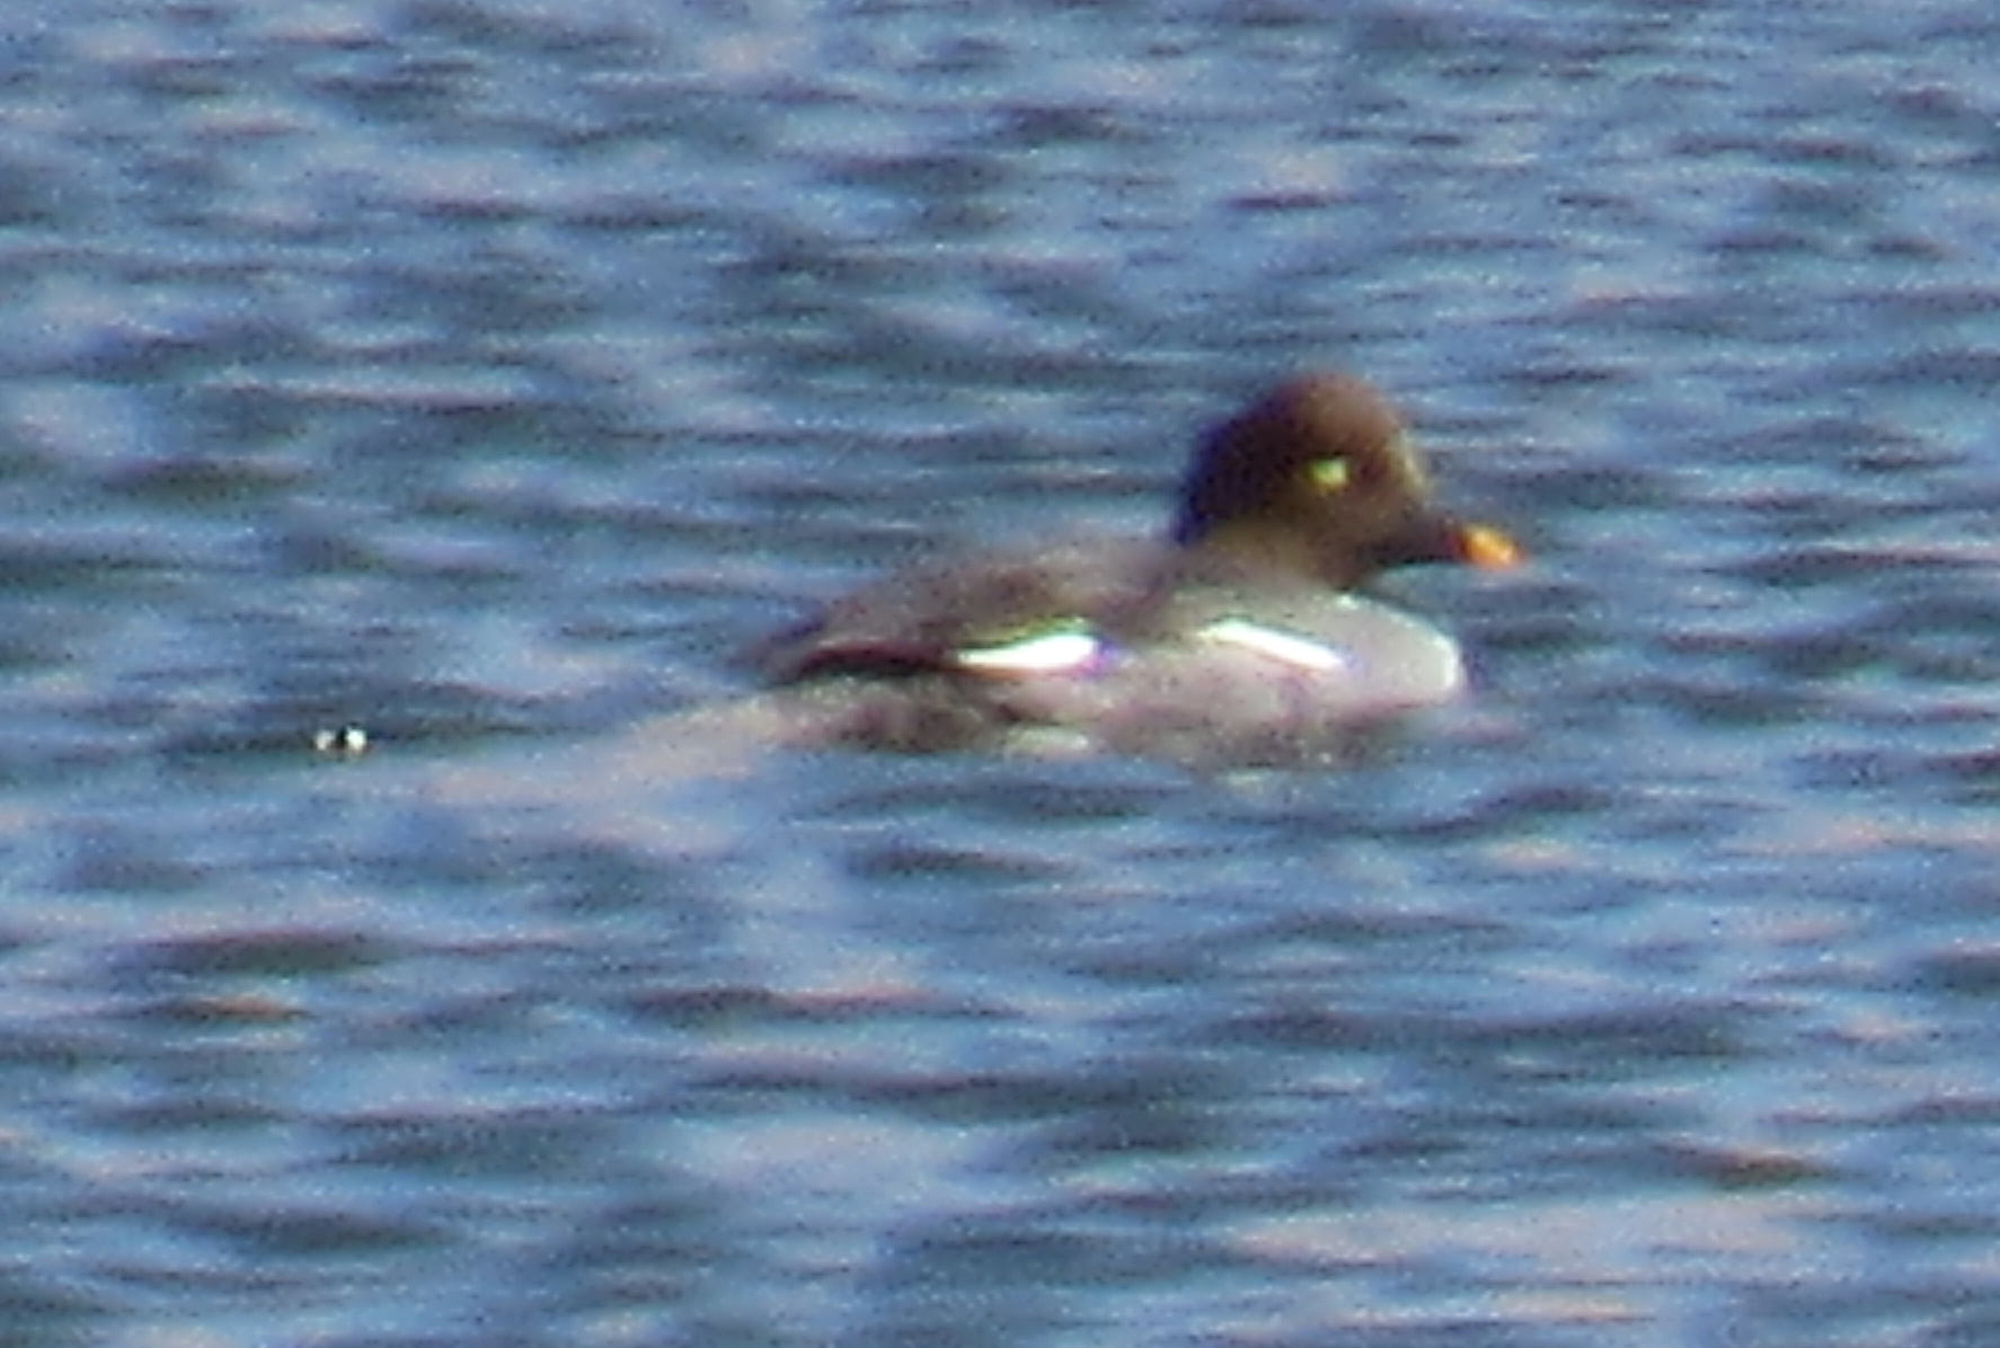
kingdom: Animalia
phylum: Chordata
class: Aves
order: Anseriformes
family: Anatidae
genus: Bucephala
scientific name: Bucephala clangula
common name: Common goldeneye
